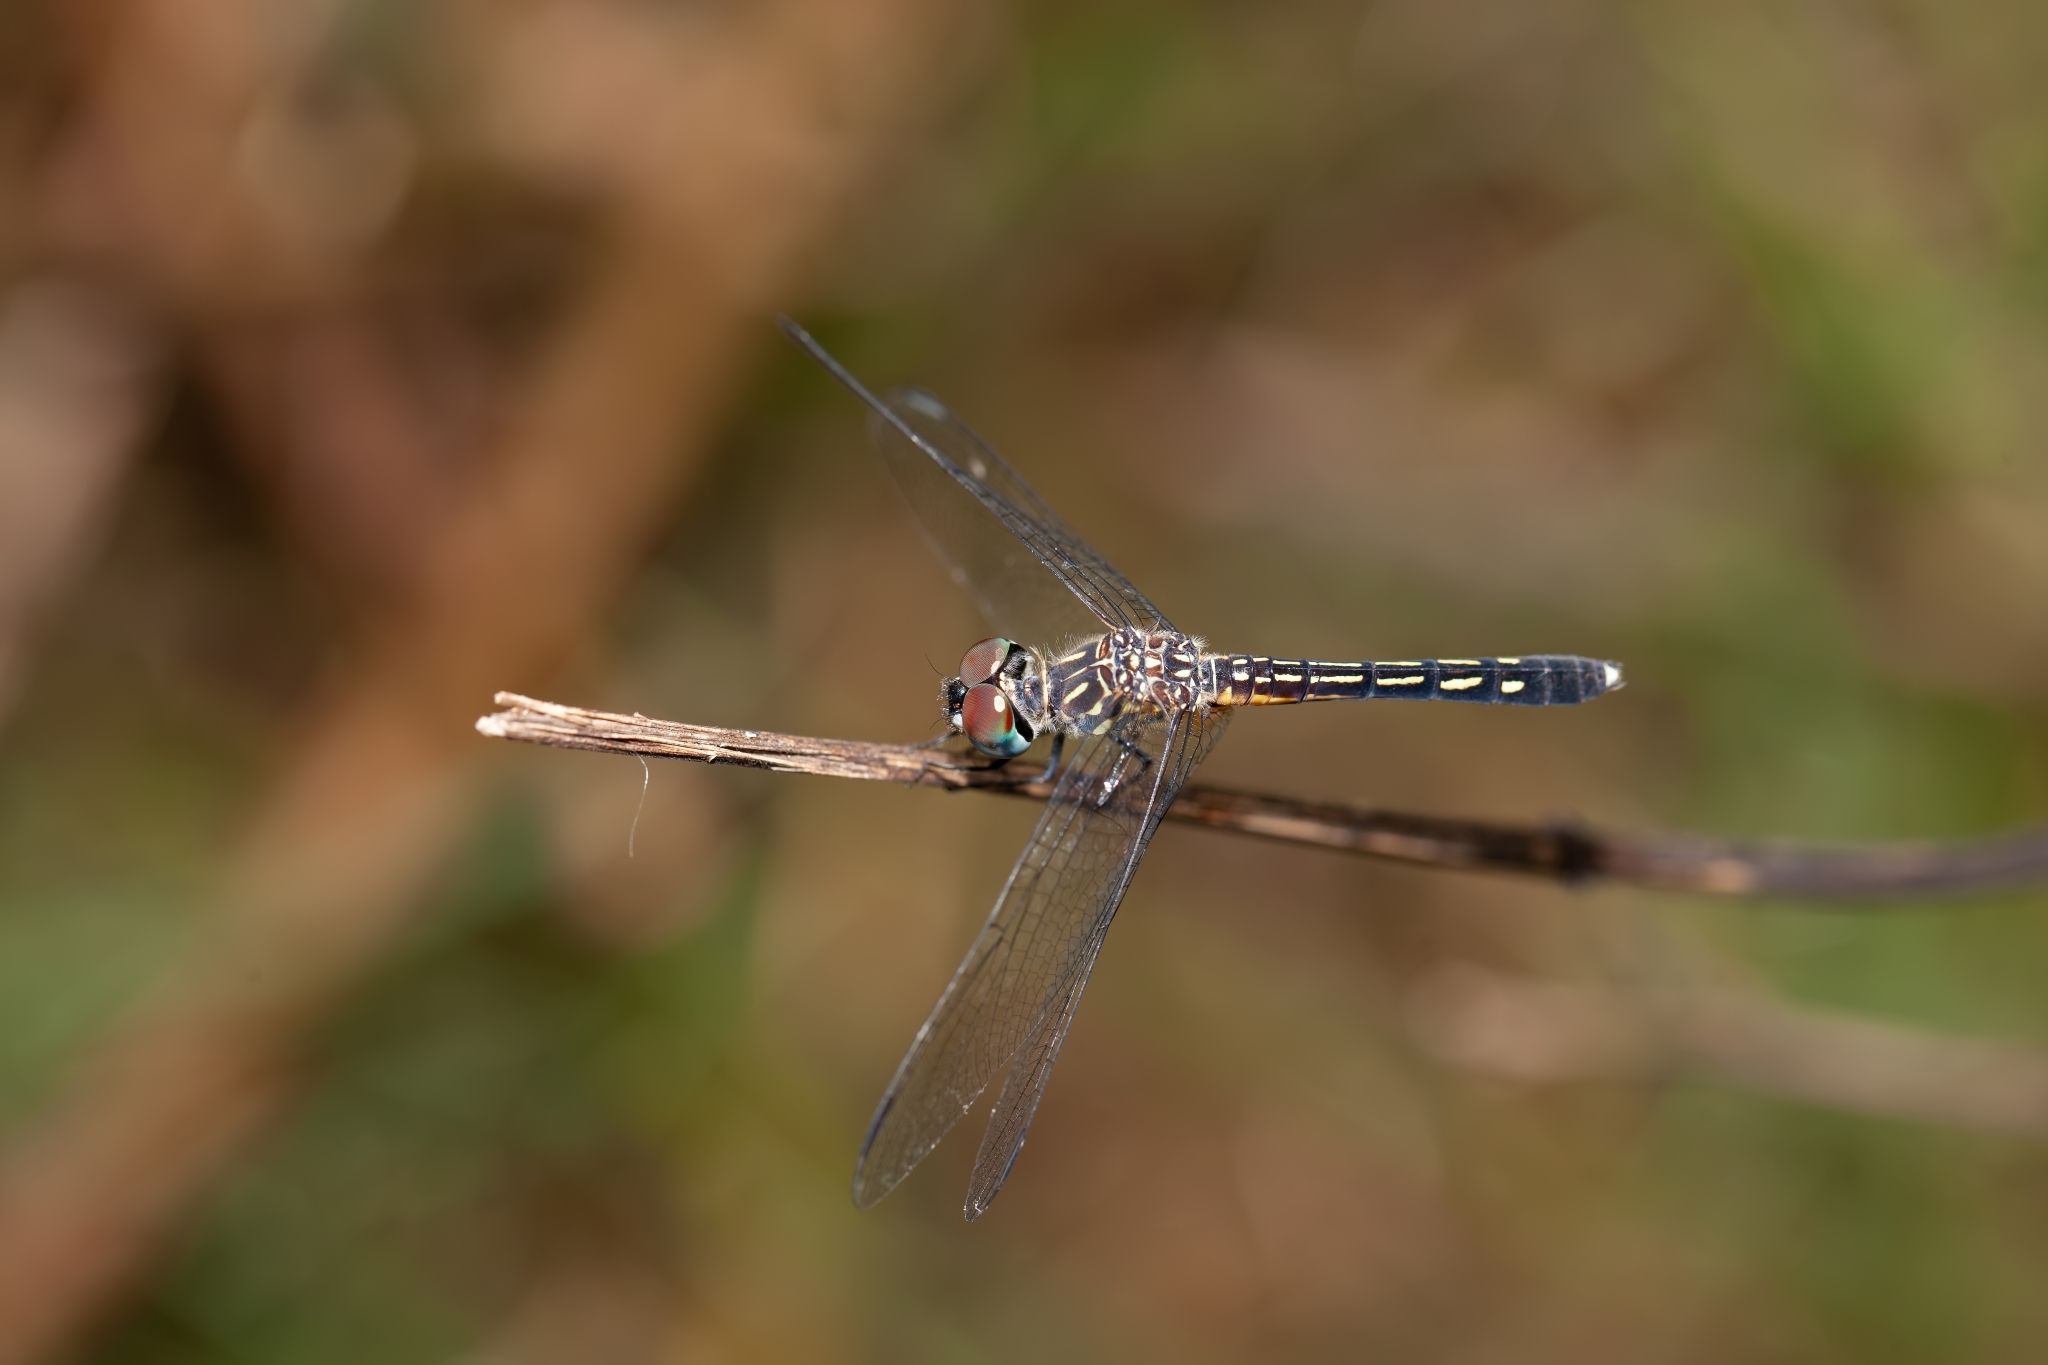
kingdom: Animalia
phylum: Arthropoda
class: Insecta
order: Odonata
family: Libellulidae
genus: Pachydiplax
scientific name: Pachydiplax longipennis
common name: Blue dasher
